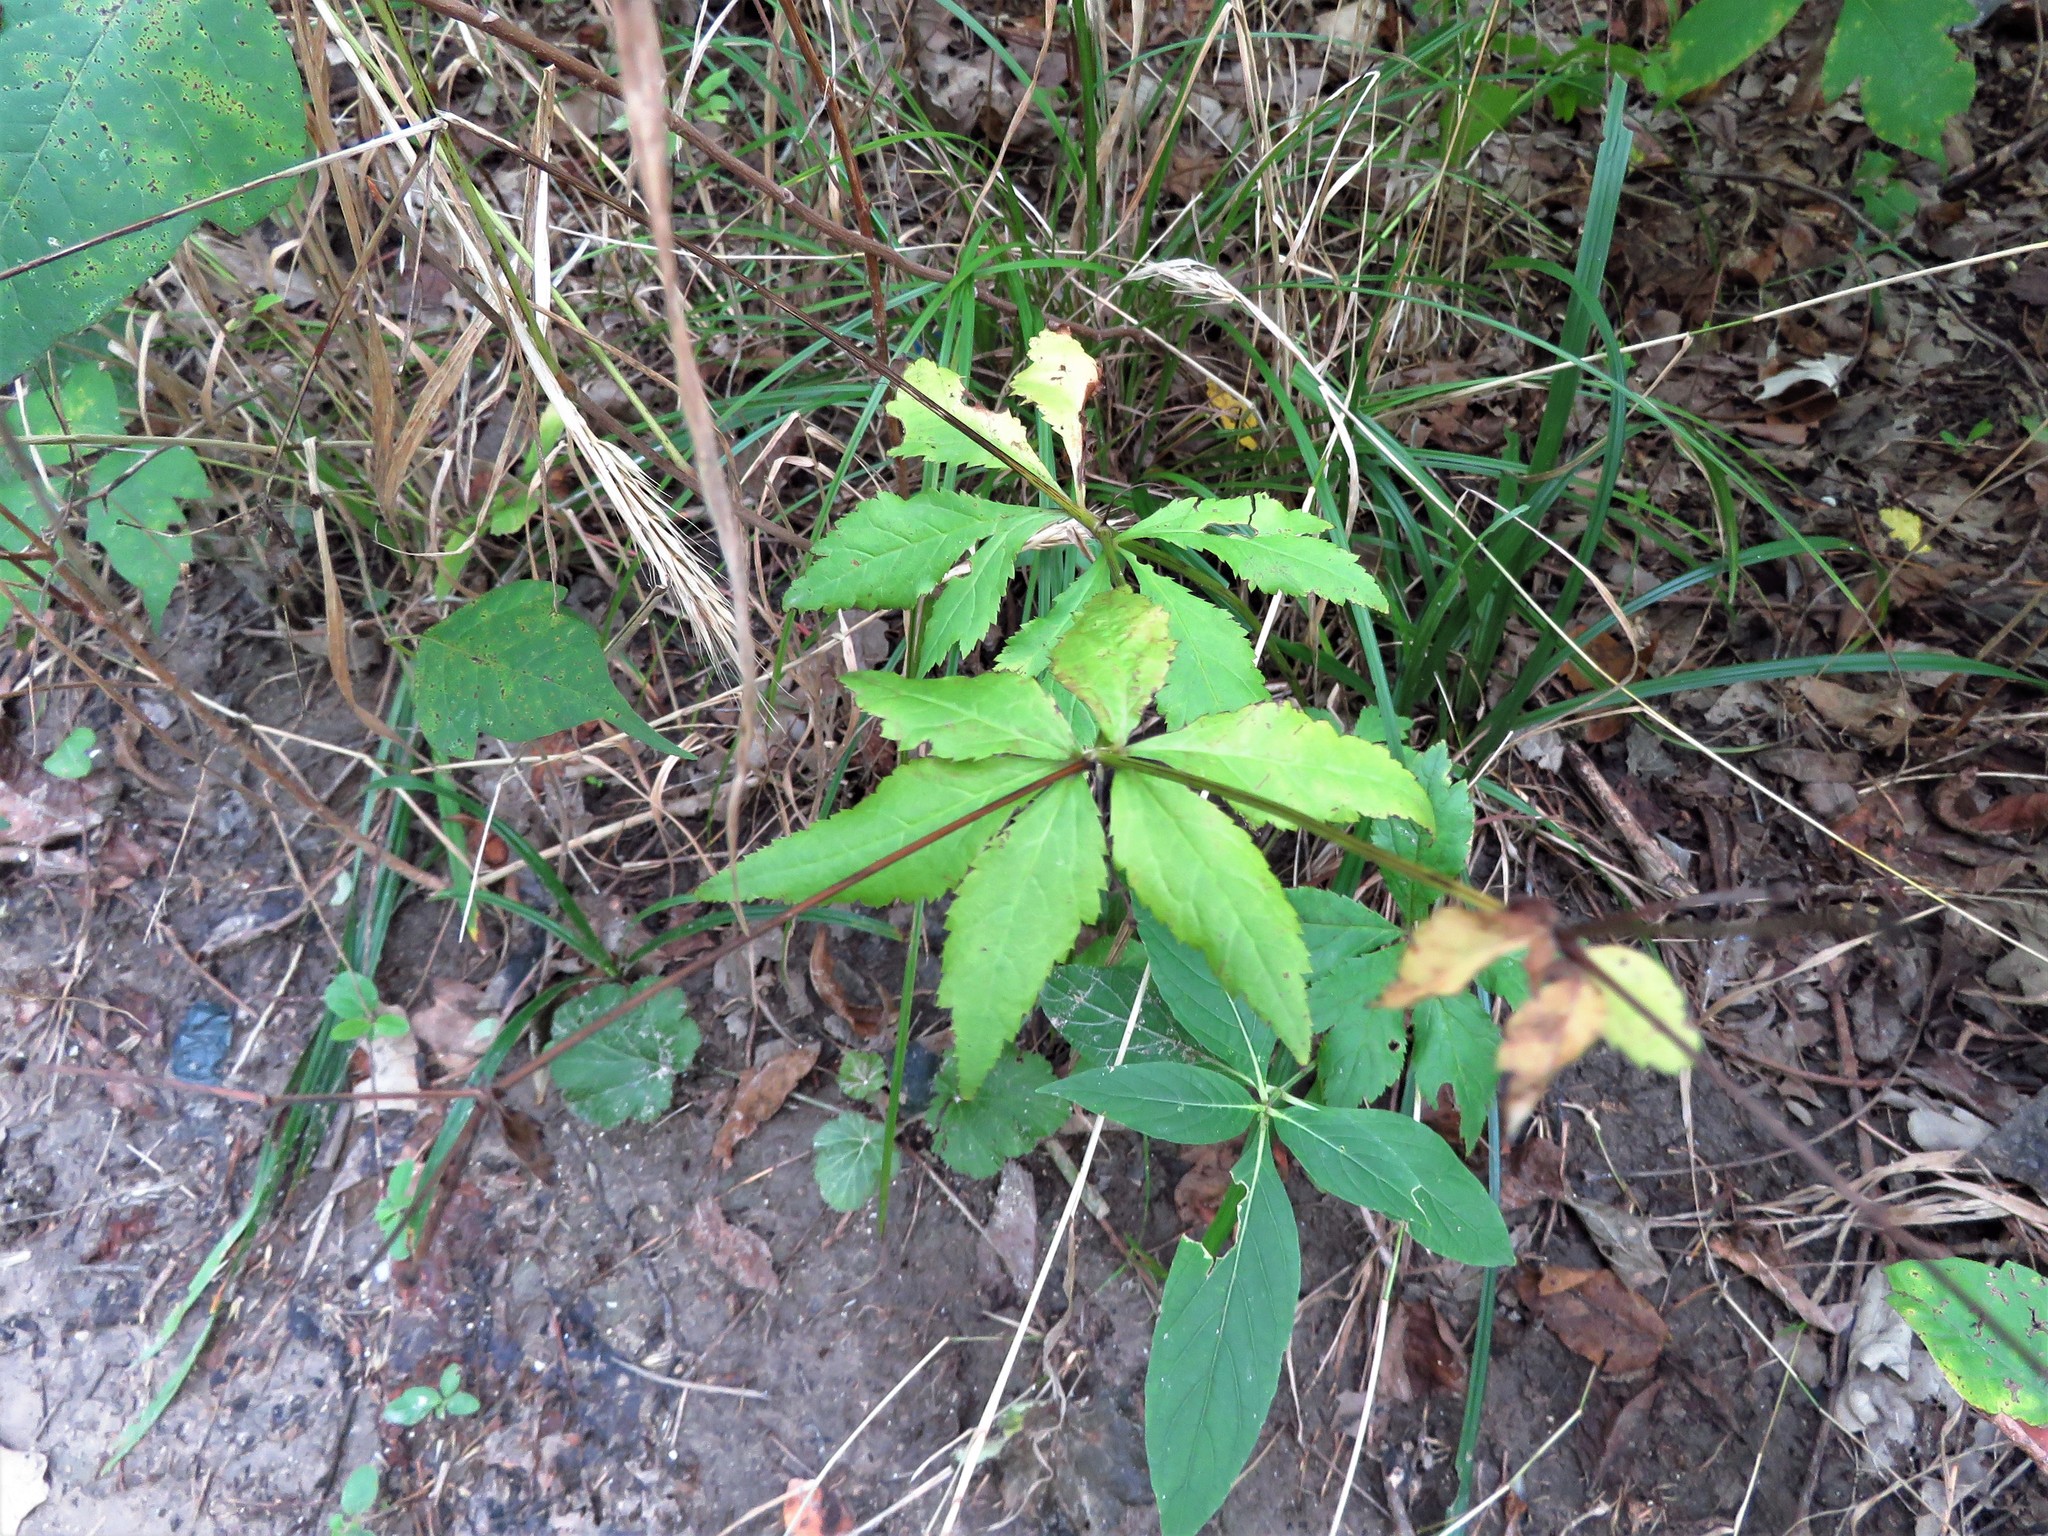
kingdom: Plantae
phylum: Tracheophyta
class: Magnoliopsida
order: Apiales
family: Apiaceae
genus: Sanicula
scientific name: Sanicula odorata
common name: Cluster sanicle
